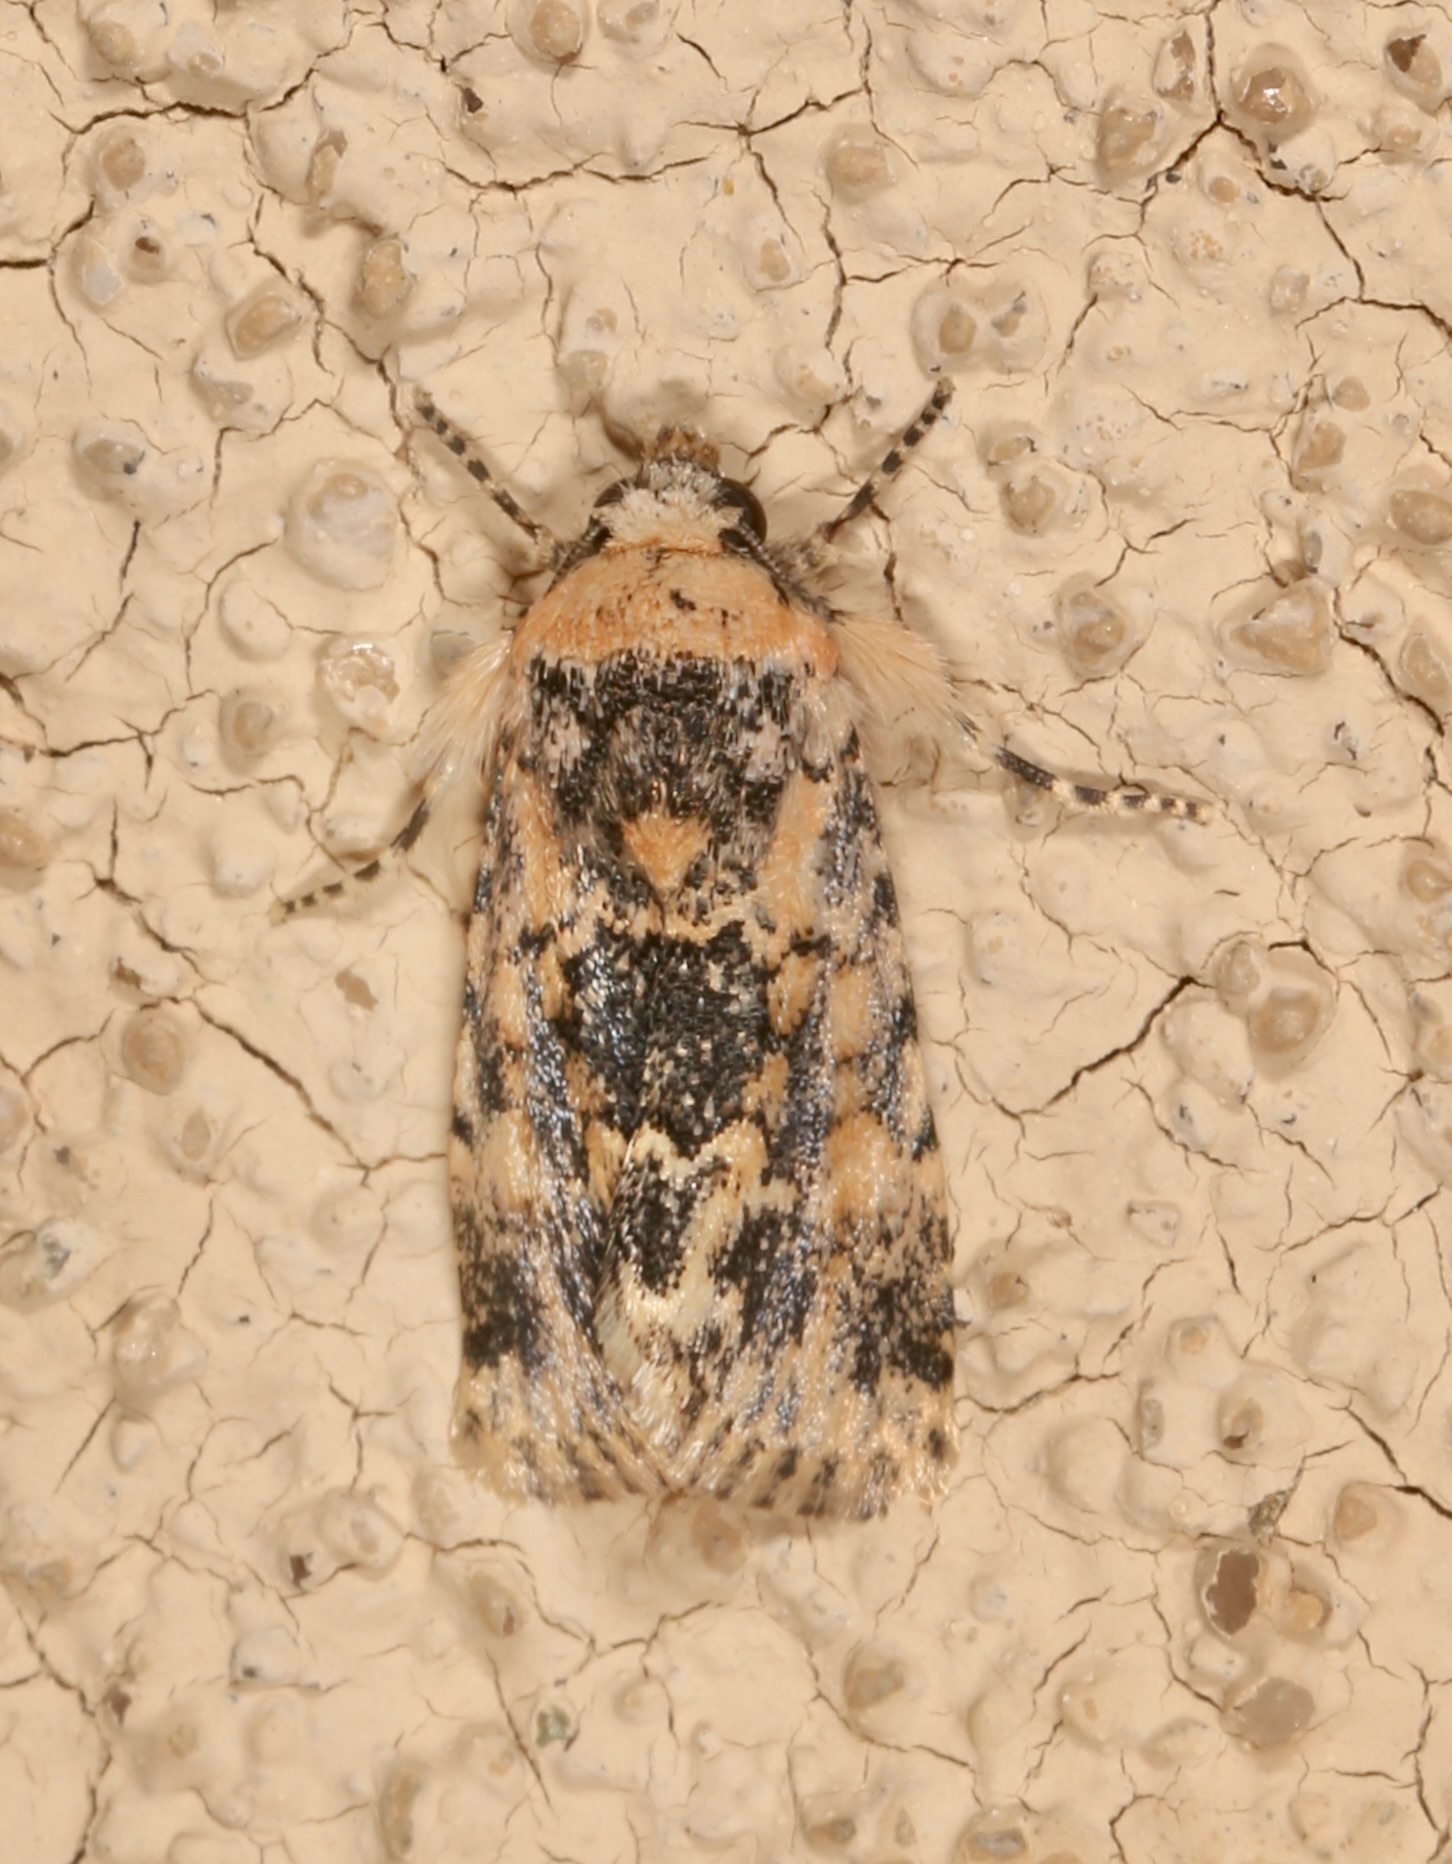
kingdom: Animalia
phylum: Arthropoda
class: Insecta
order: Lepidoptera
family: Noctuidae
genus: Sympistis
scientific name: Sympistis singularis
